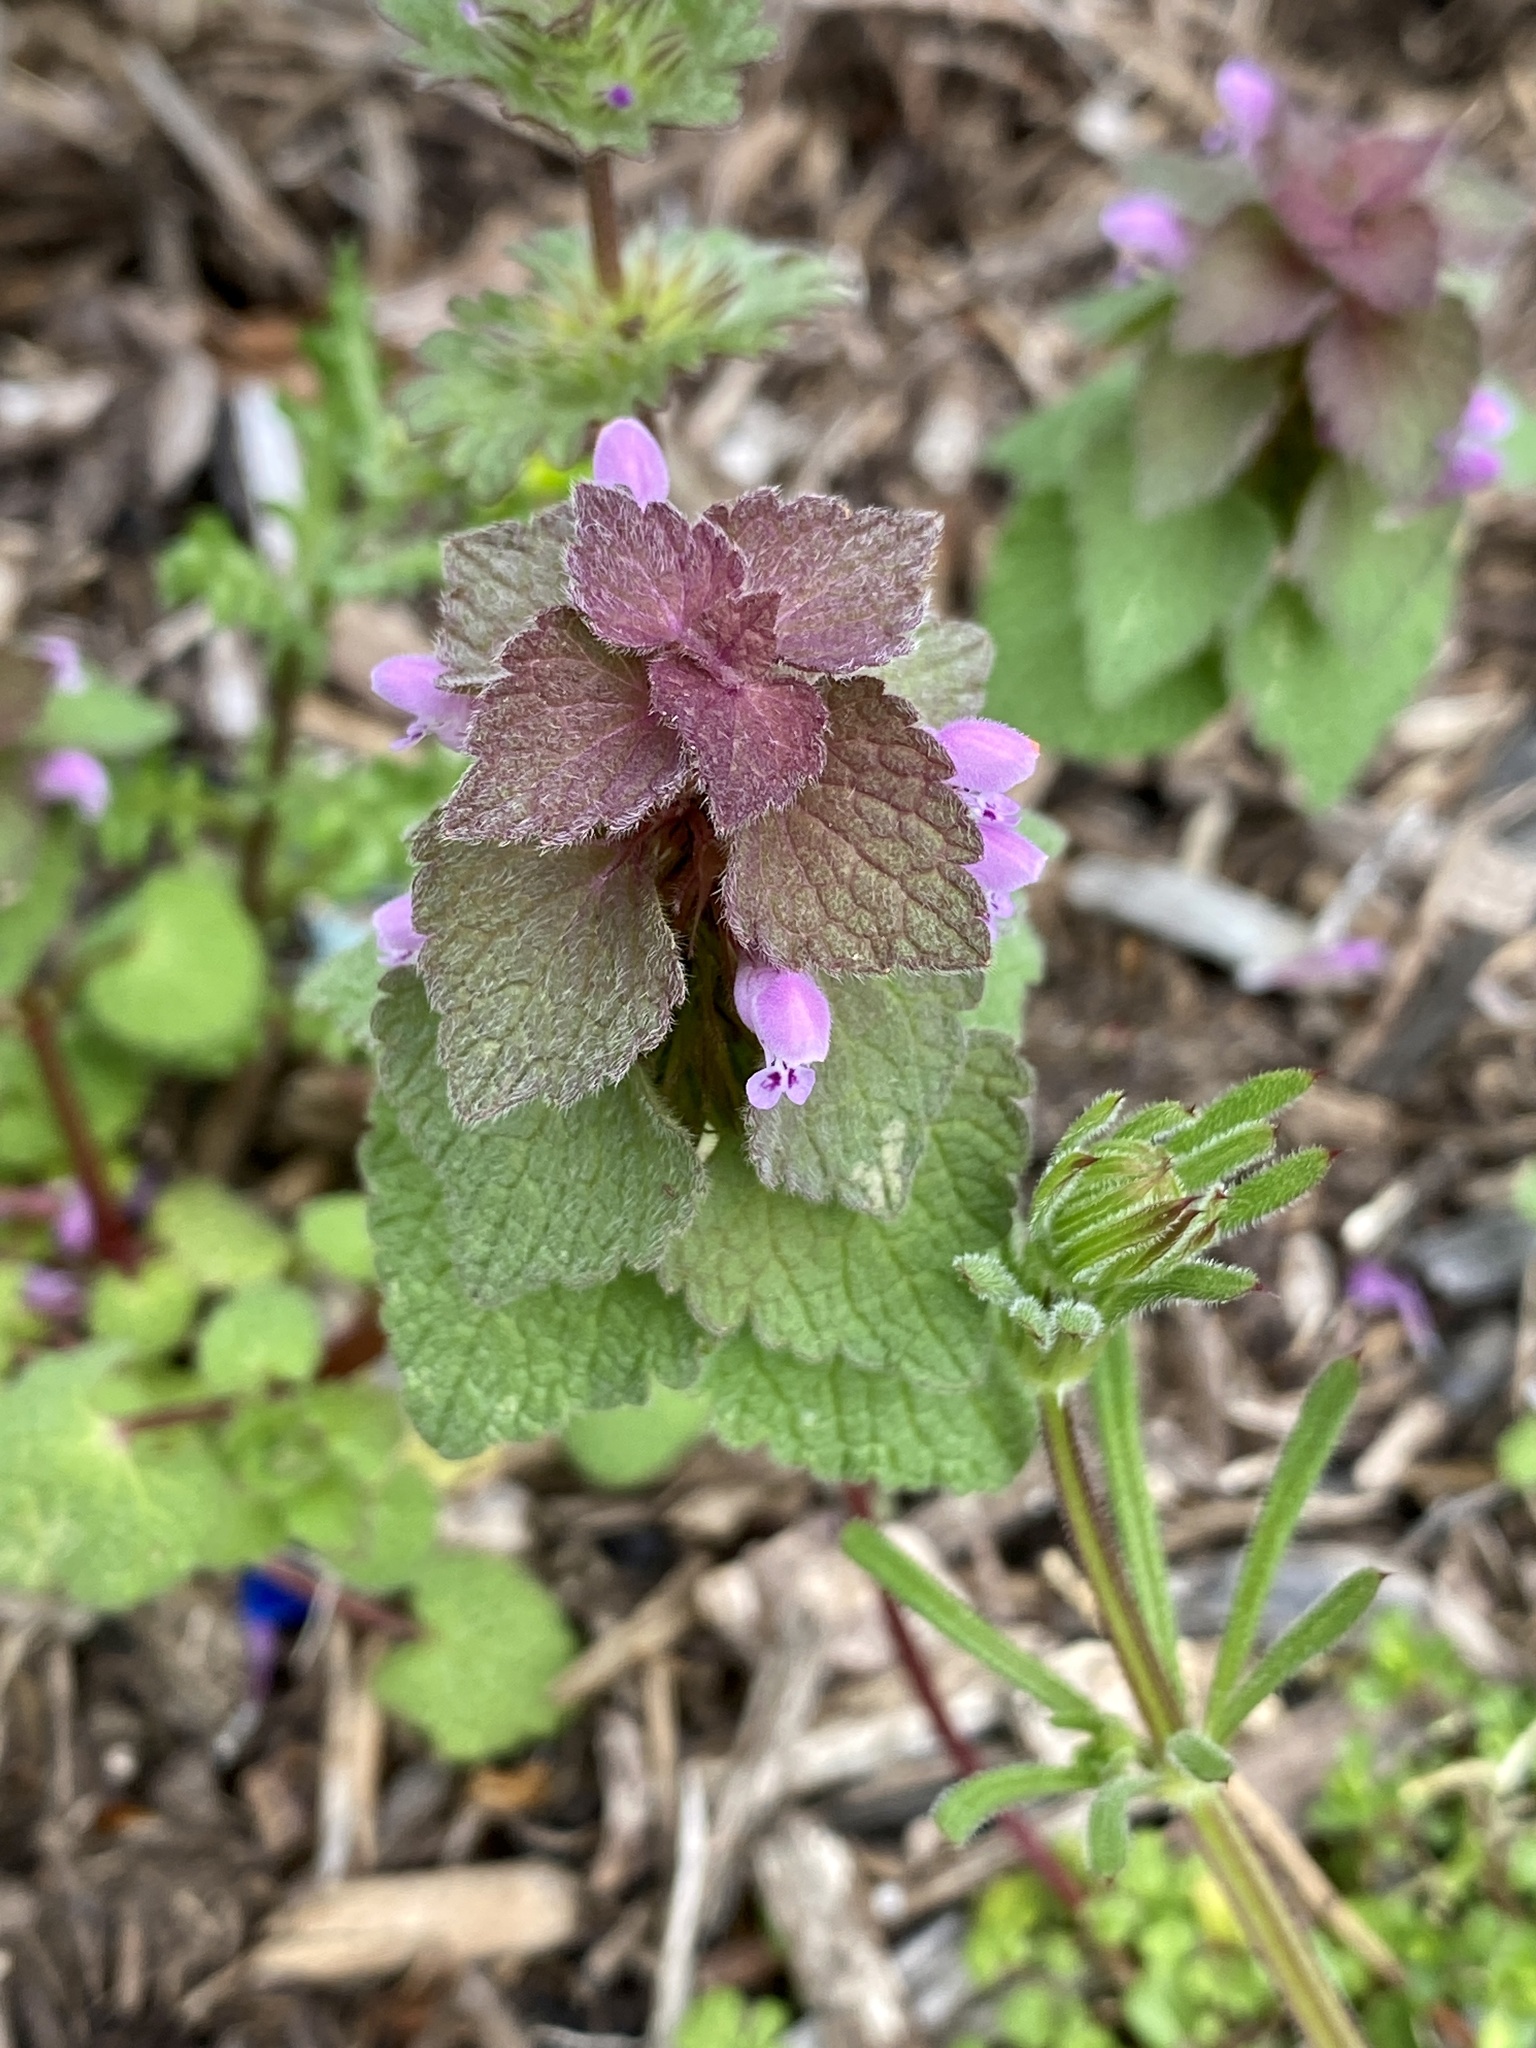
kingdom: Plantae
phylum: Tracheophyta
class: Magnoliopsida
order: Lamiales
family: Lamiaceae
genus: Lamium
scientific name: Lamium purpureum
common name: Red dead-nettle
